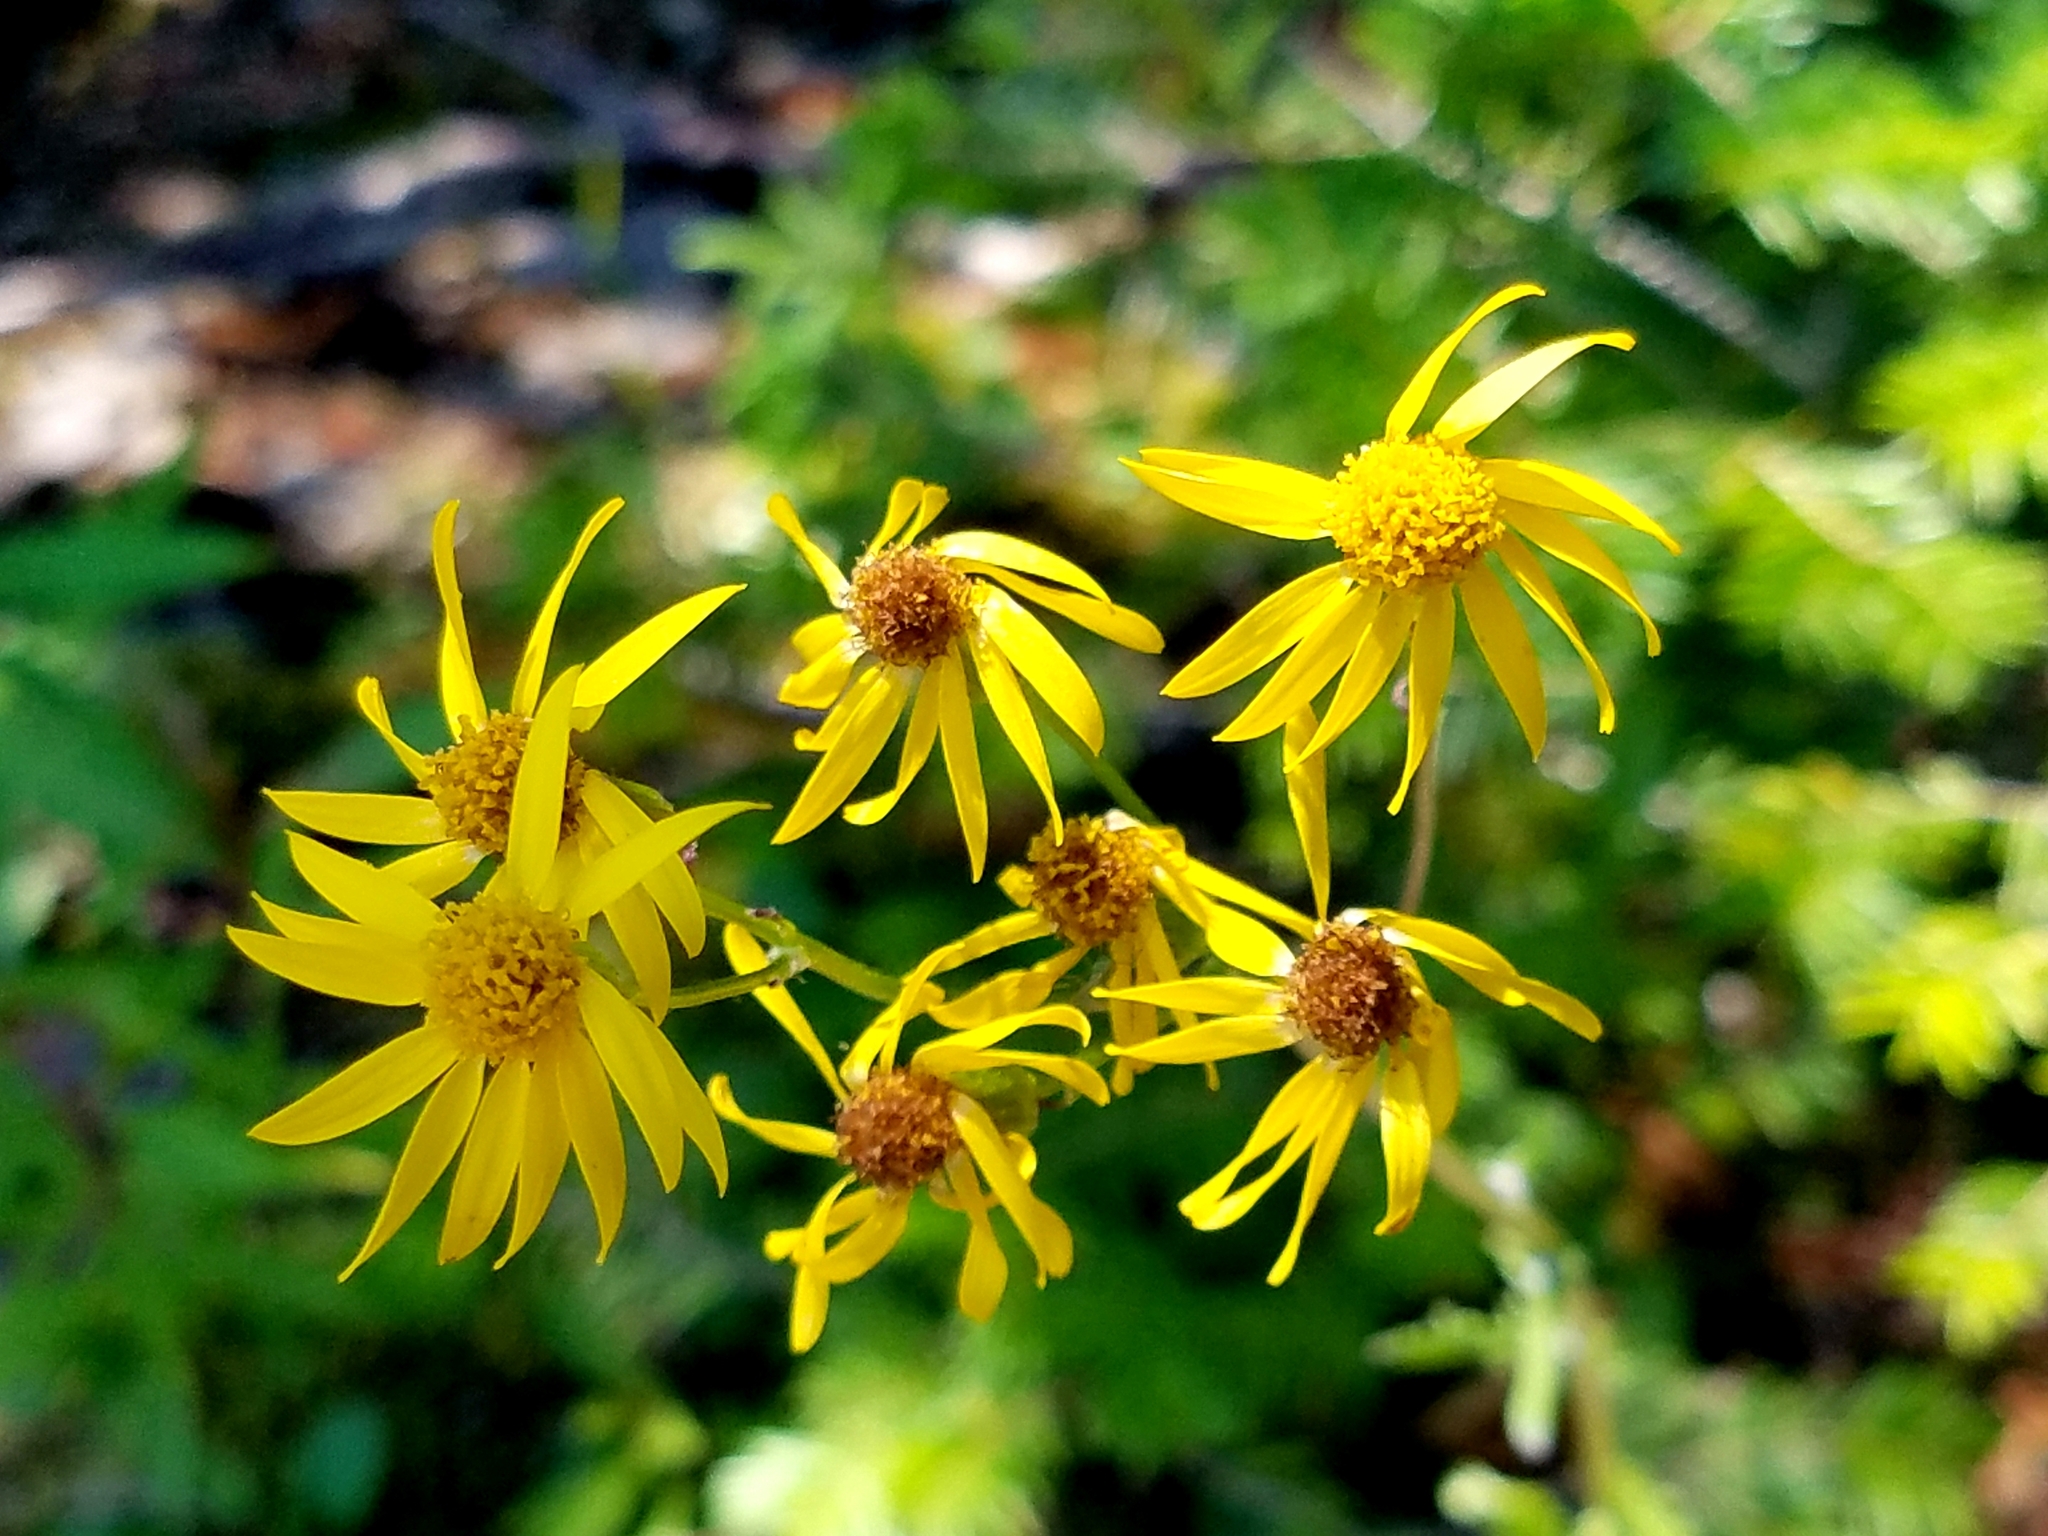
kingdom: Plantae
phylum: Tracheophyta
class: Magnoliopsida
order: Asterales
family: Asteraceae
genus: Packera
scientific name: Packera indecora
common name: Elegant groundsel
